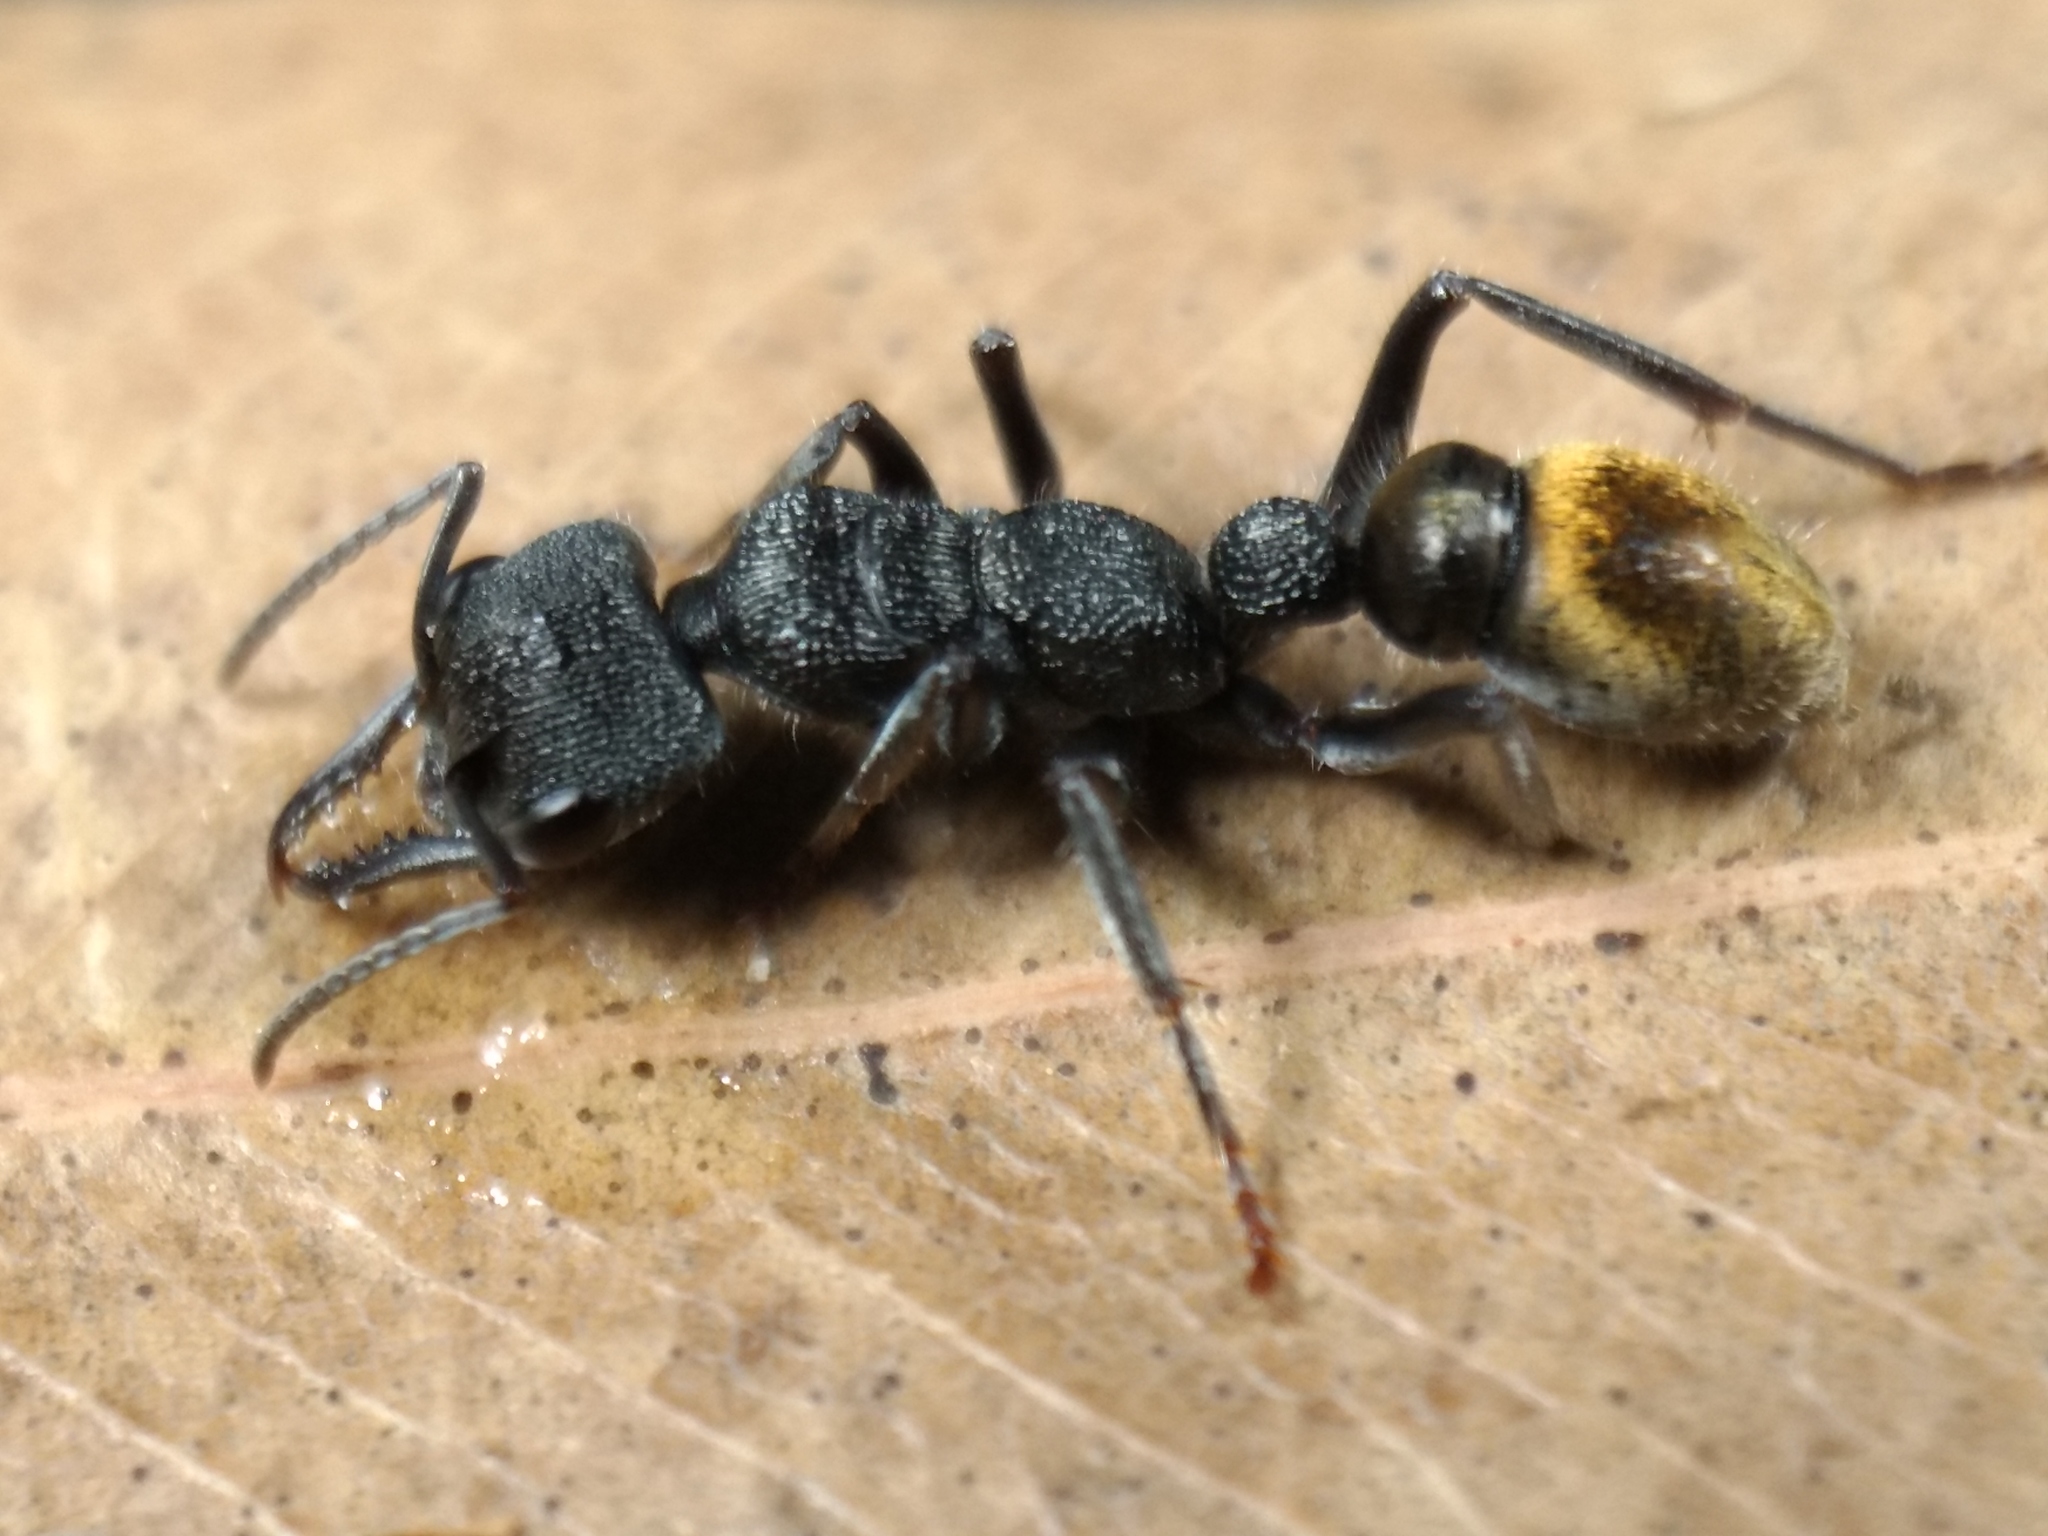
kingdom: Animalia
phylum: Arthropoda
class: Insecta
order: Hymenoptera
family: Formicidae
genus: Myrmecia
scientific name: Myrmecia queenslandica
